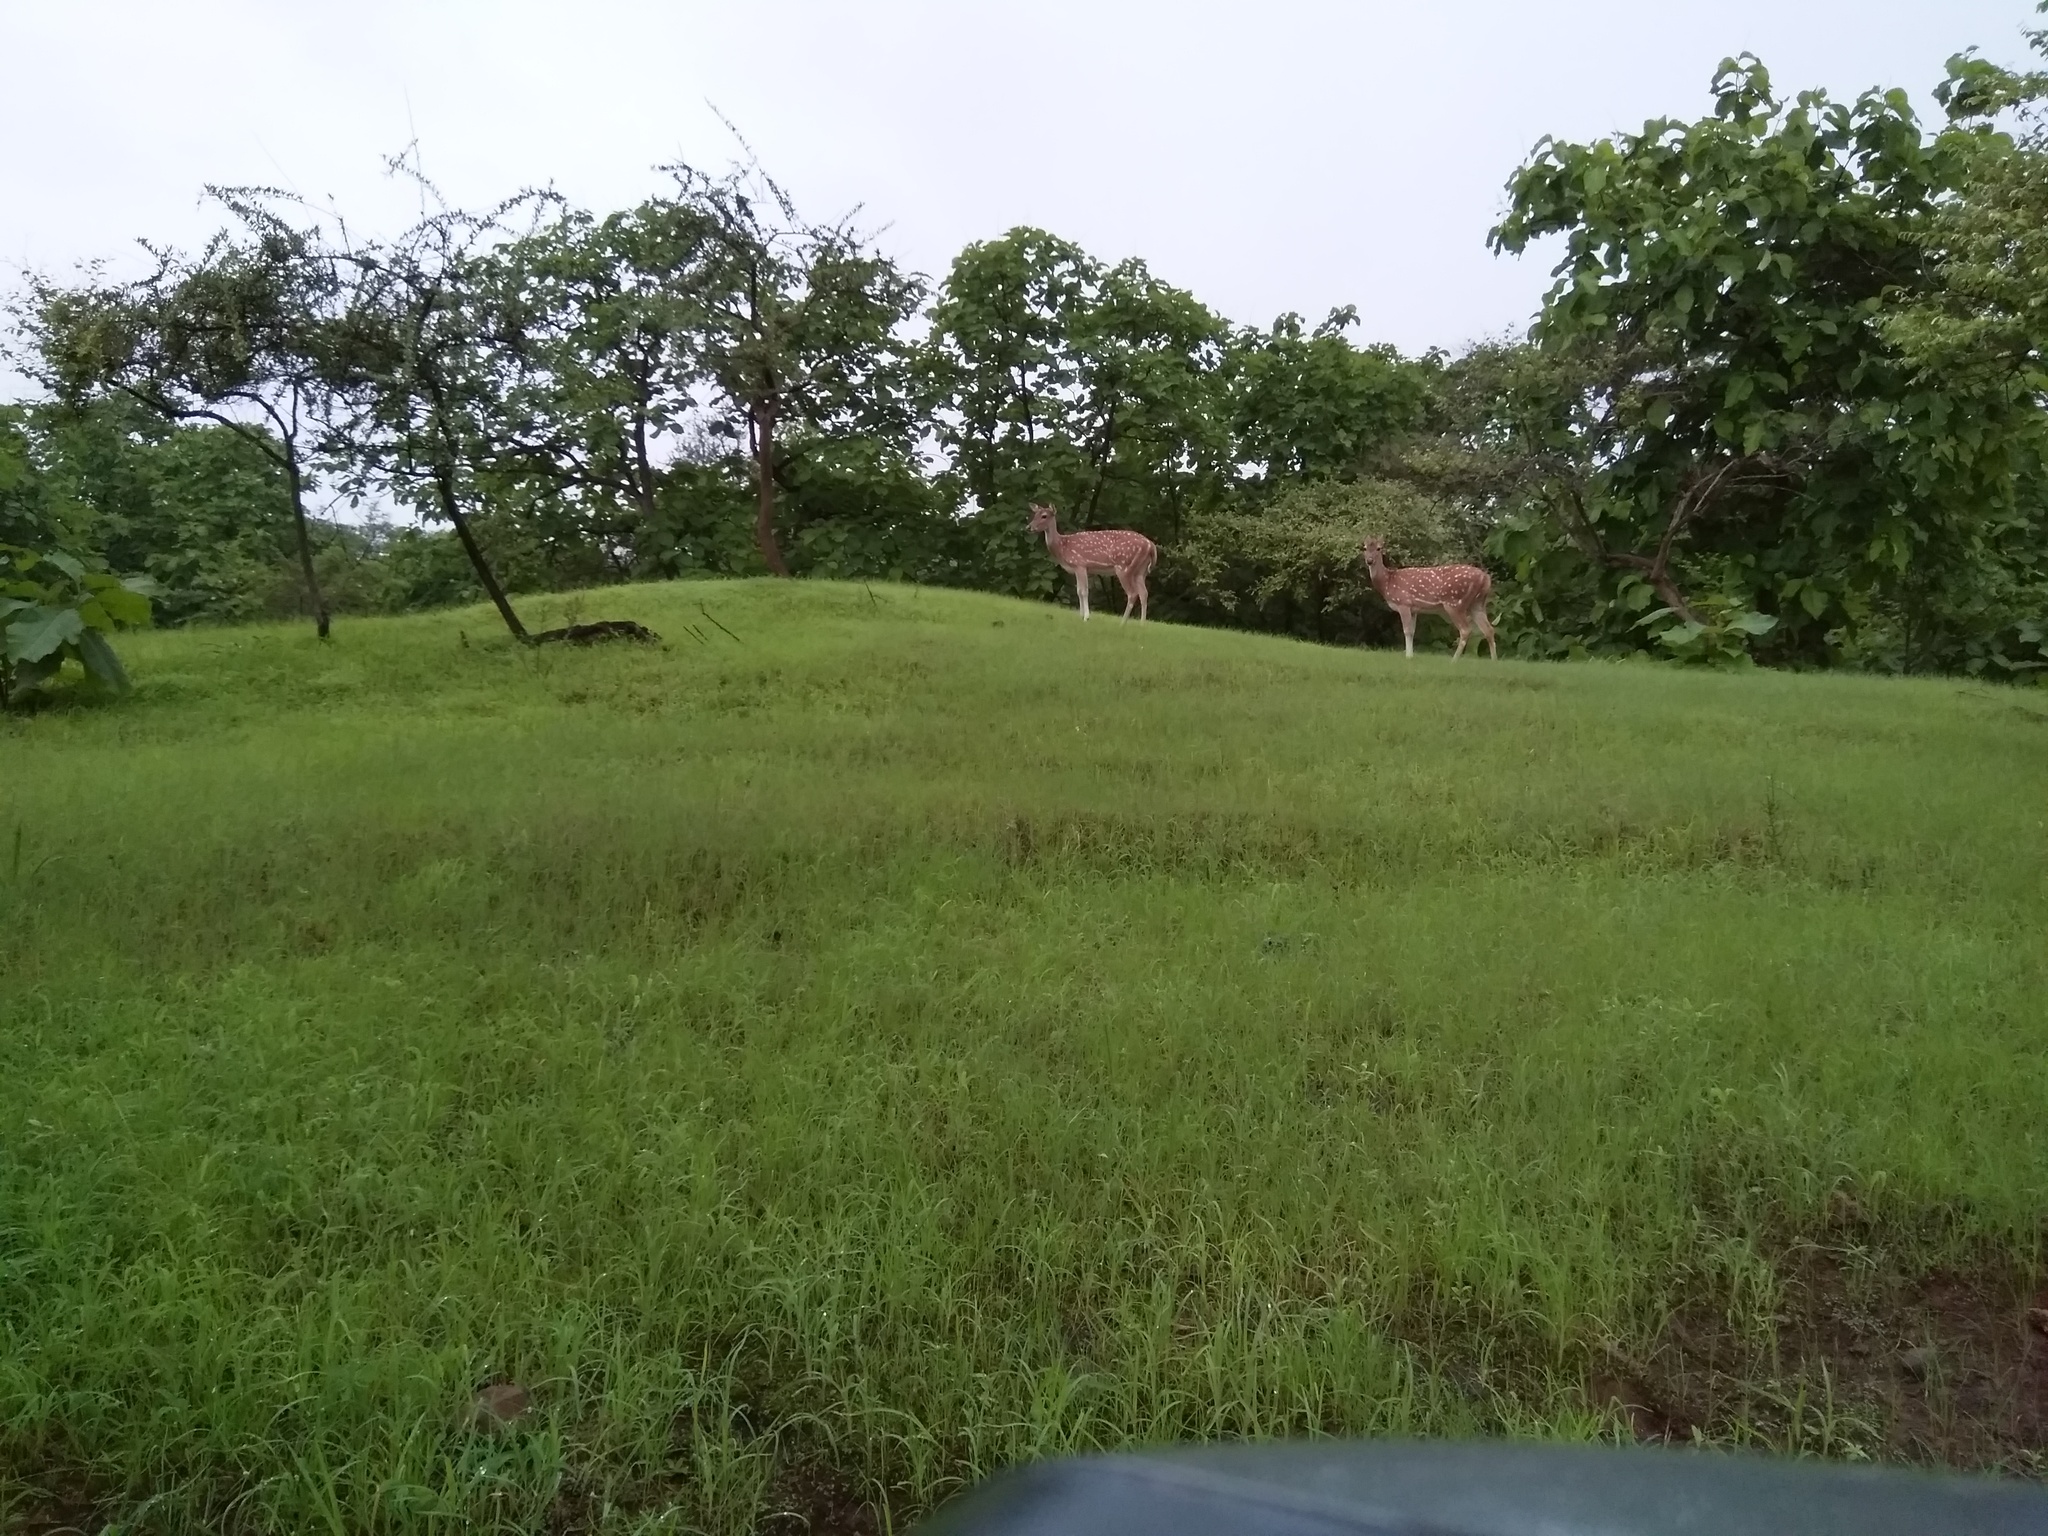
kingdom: Animalia
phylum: Chordata
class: Mammalia
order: Artiodactyla
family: Cervidae
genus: Axis
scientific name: Axis axis
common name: Chital
